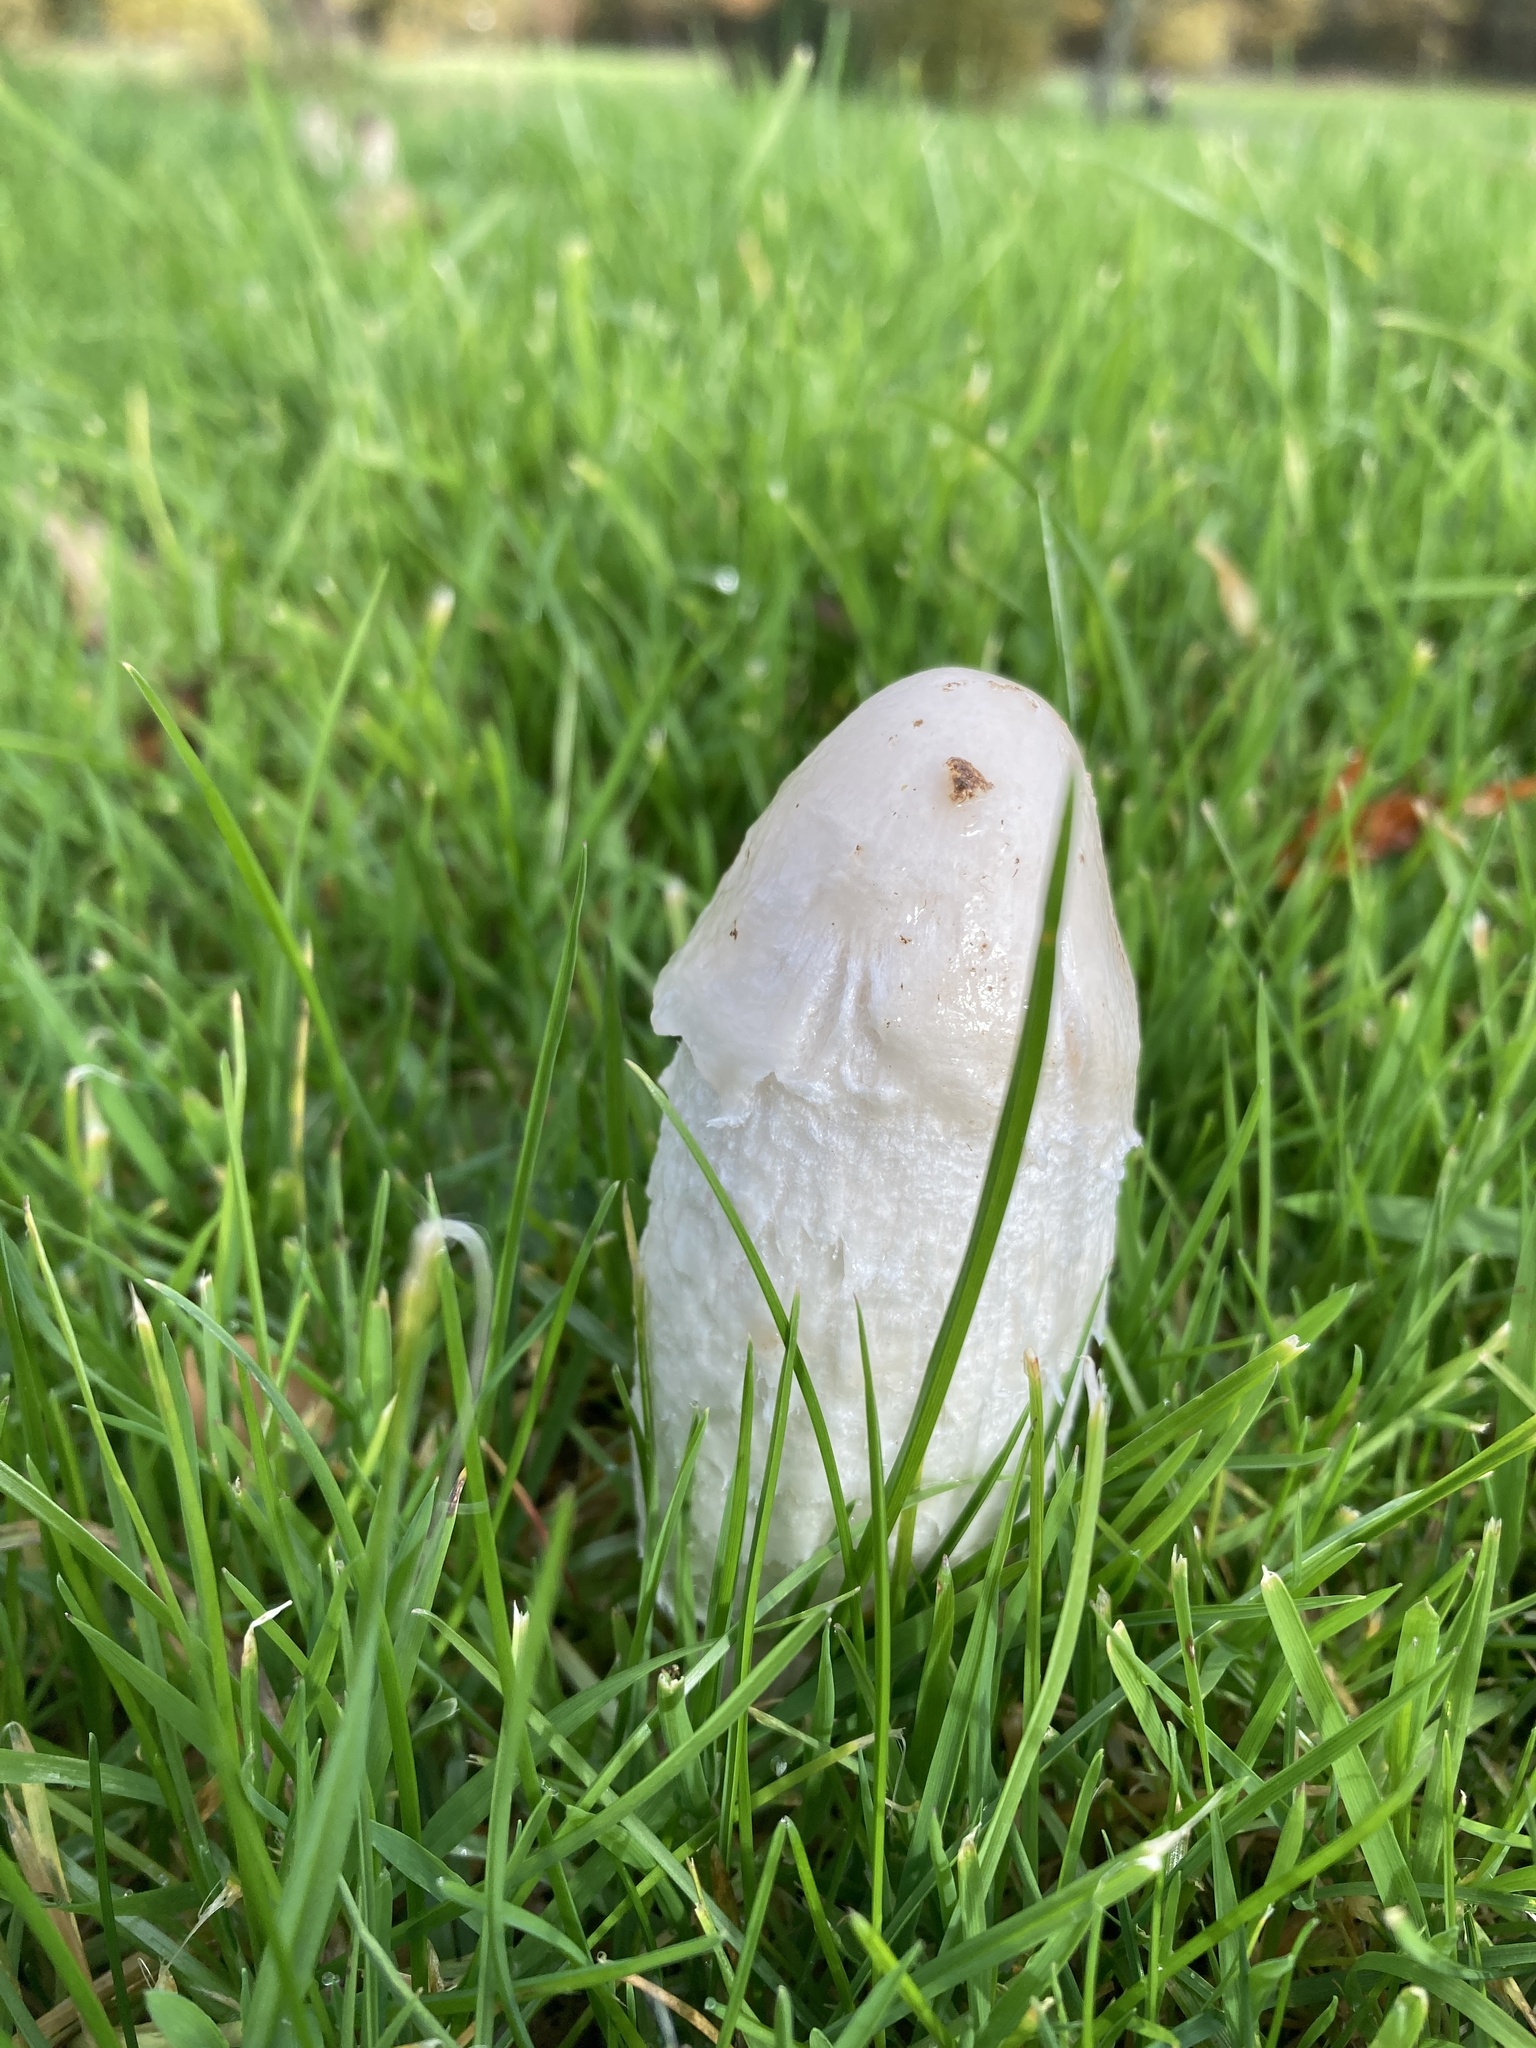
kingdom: Fungi
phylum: Basidiomycota
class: Agaricomycetes
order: Agaricales
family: Agaricaceae
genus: Coprinus
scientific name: Coprinus comatus
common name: Lawyer's wig
